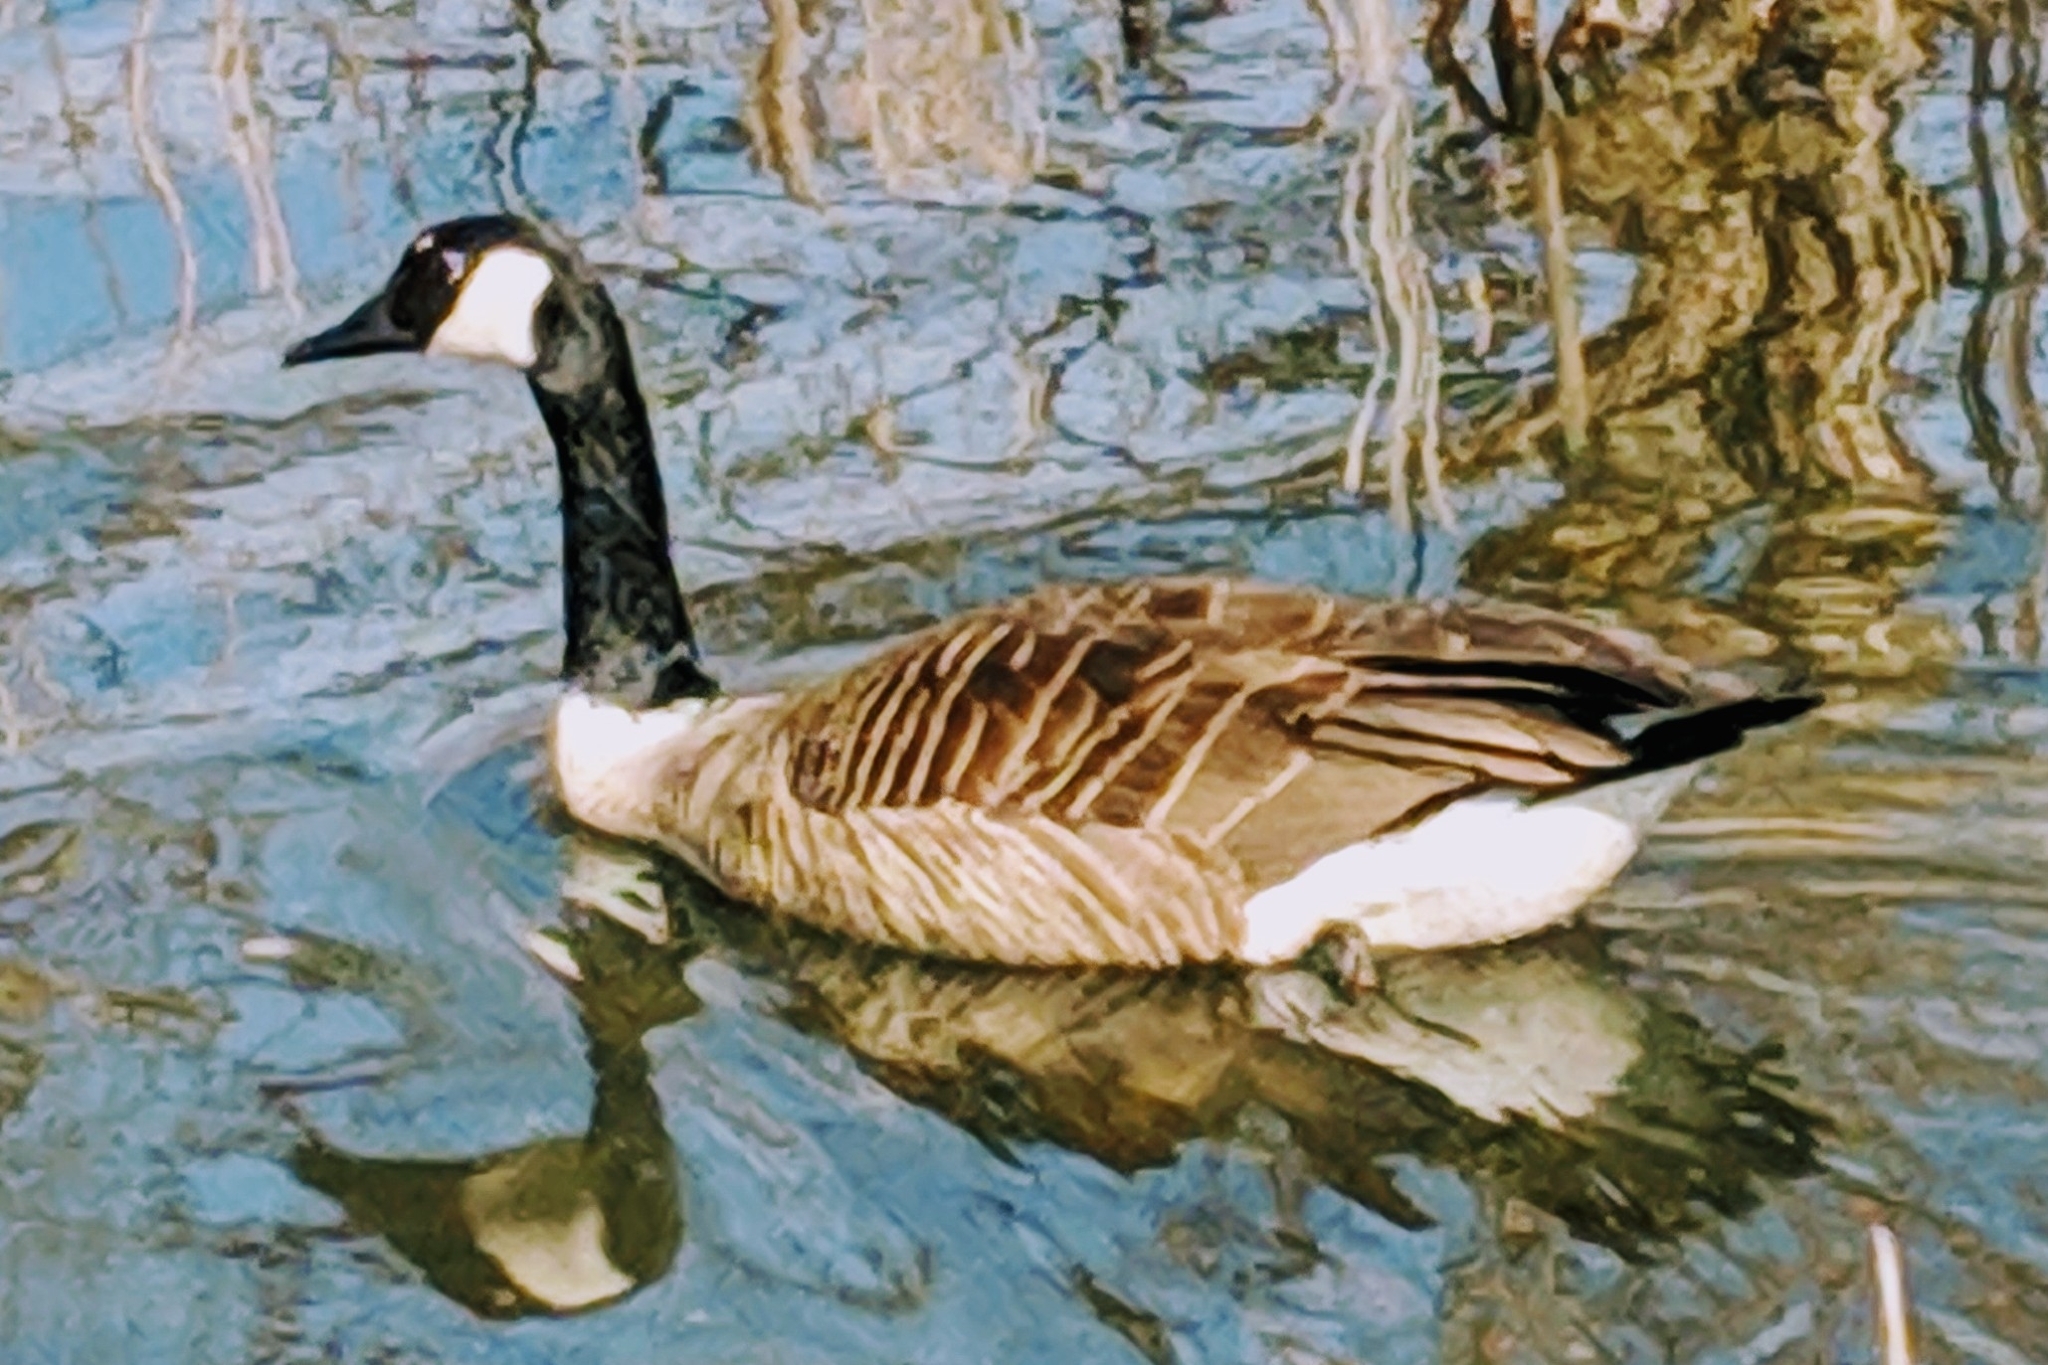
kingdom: Animalia
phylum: Chordata
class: Aves
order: Anseriformes
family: Anatidae
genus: Branta
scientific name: Branta canadensis
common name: Canada goose
